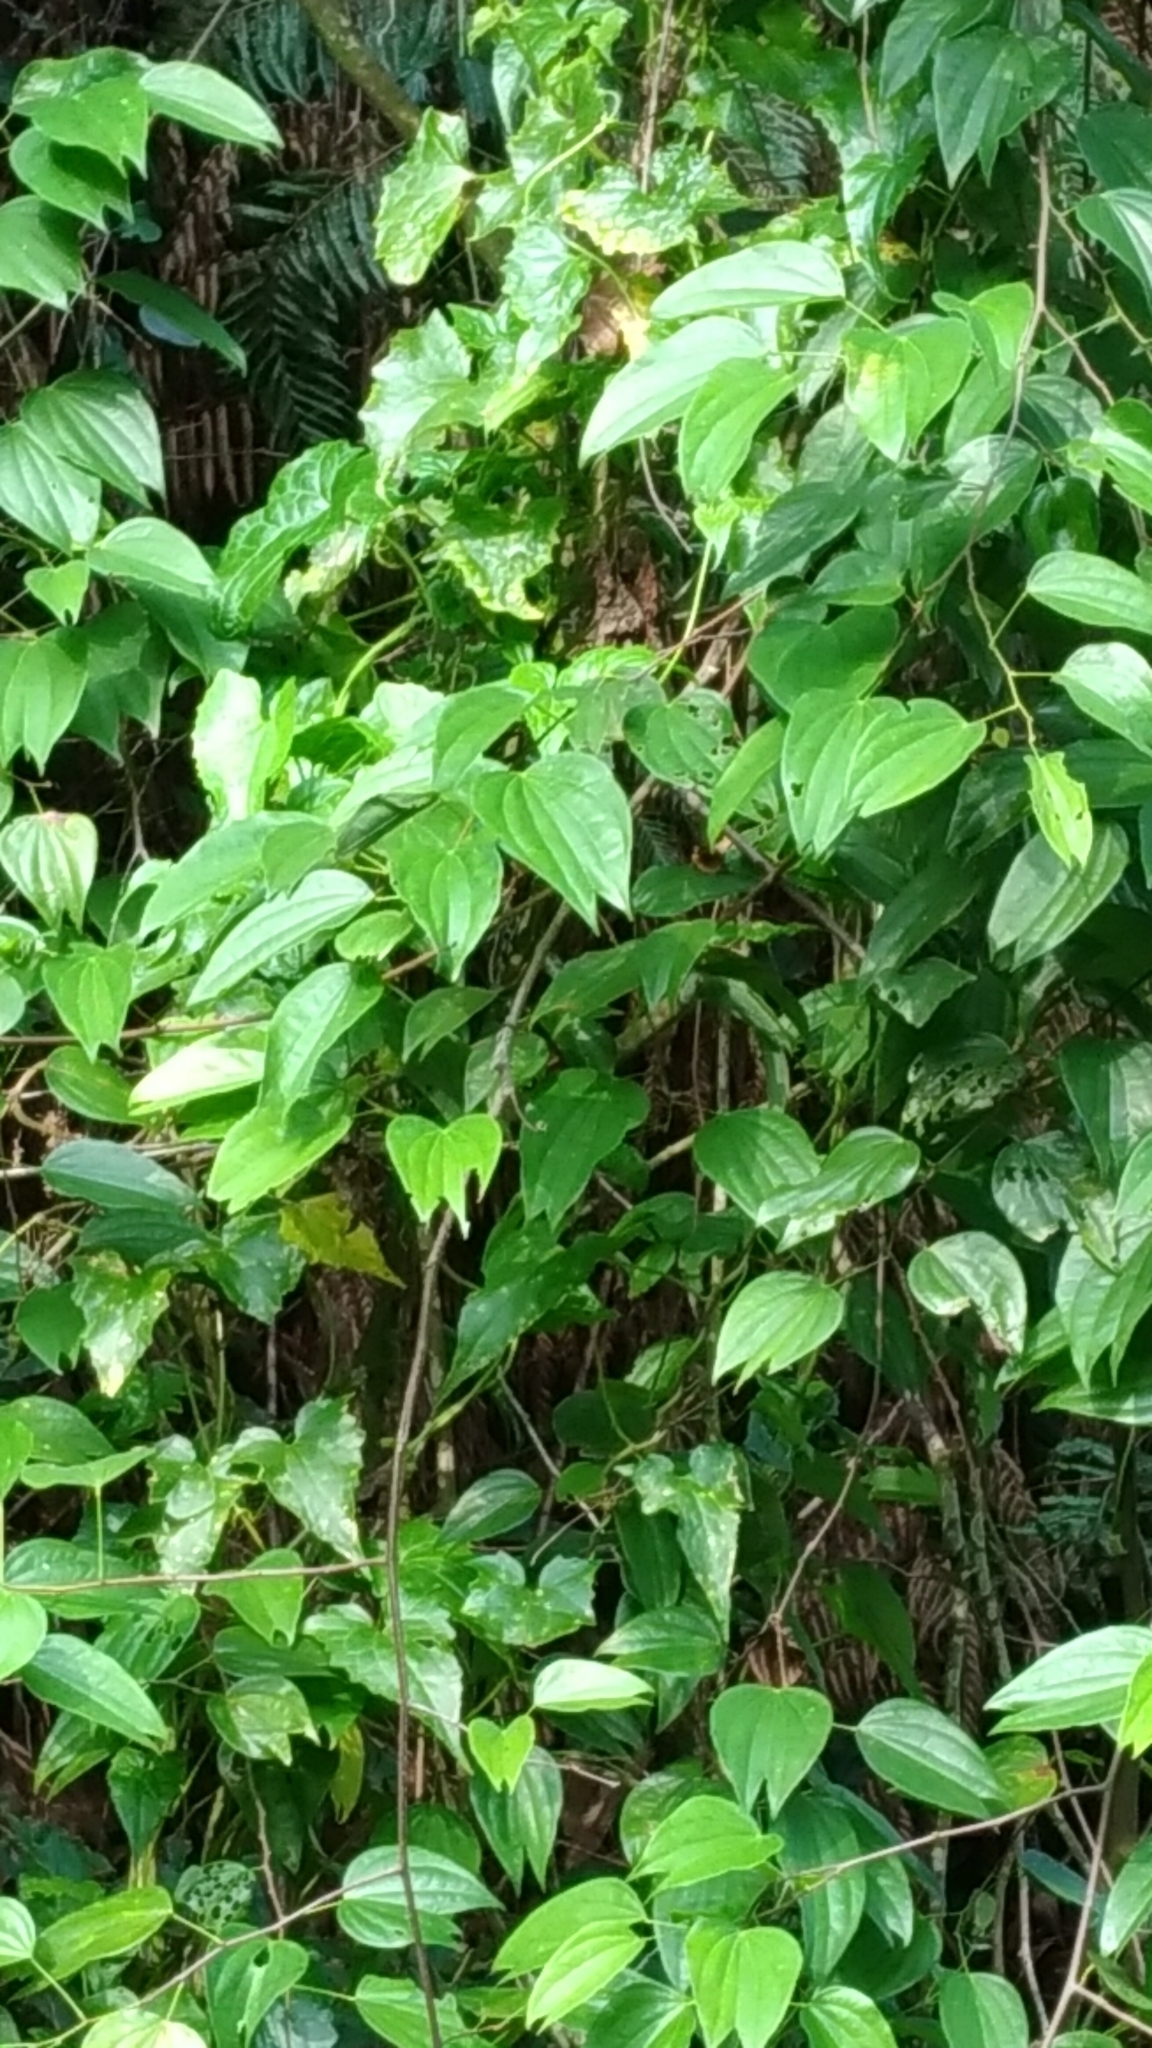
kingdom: Plantae
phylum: Tracheophyta
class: Magnoliopsida
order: Fabales
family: Fabaceae
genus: Phanera
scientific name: Phanera championii
